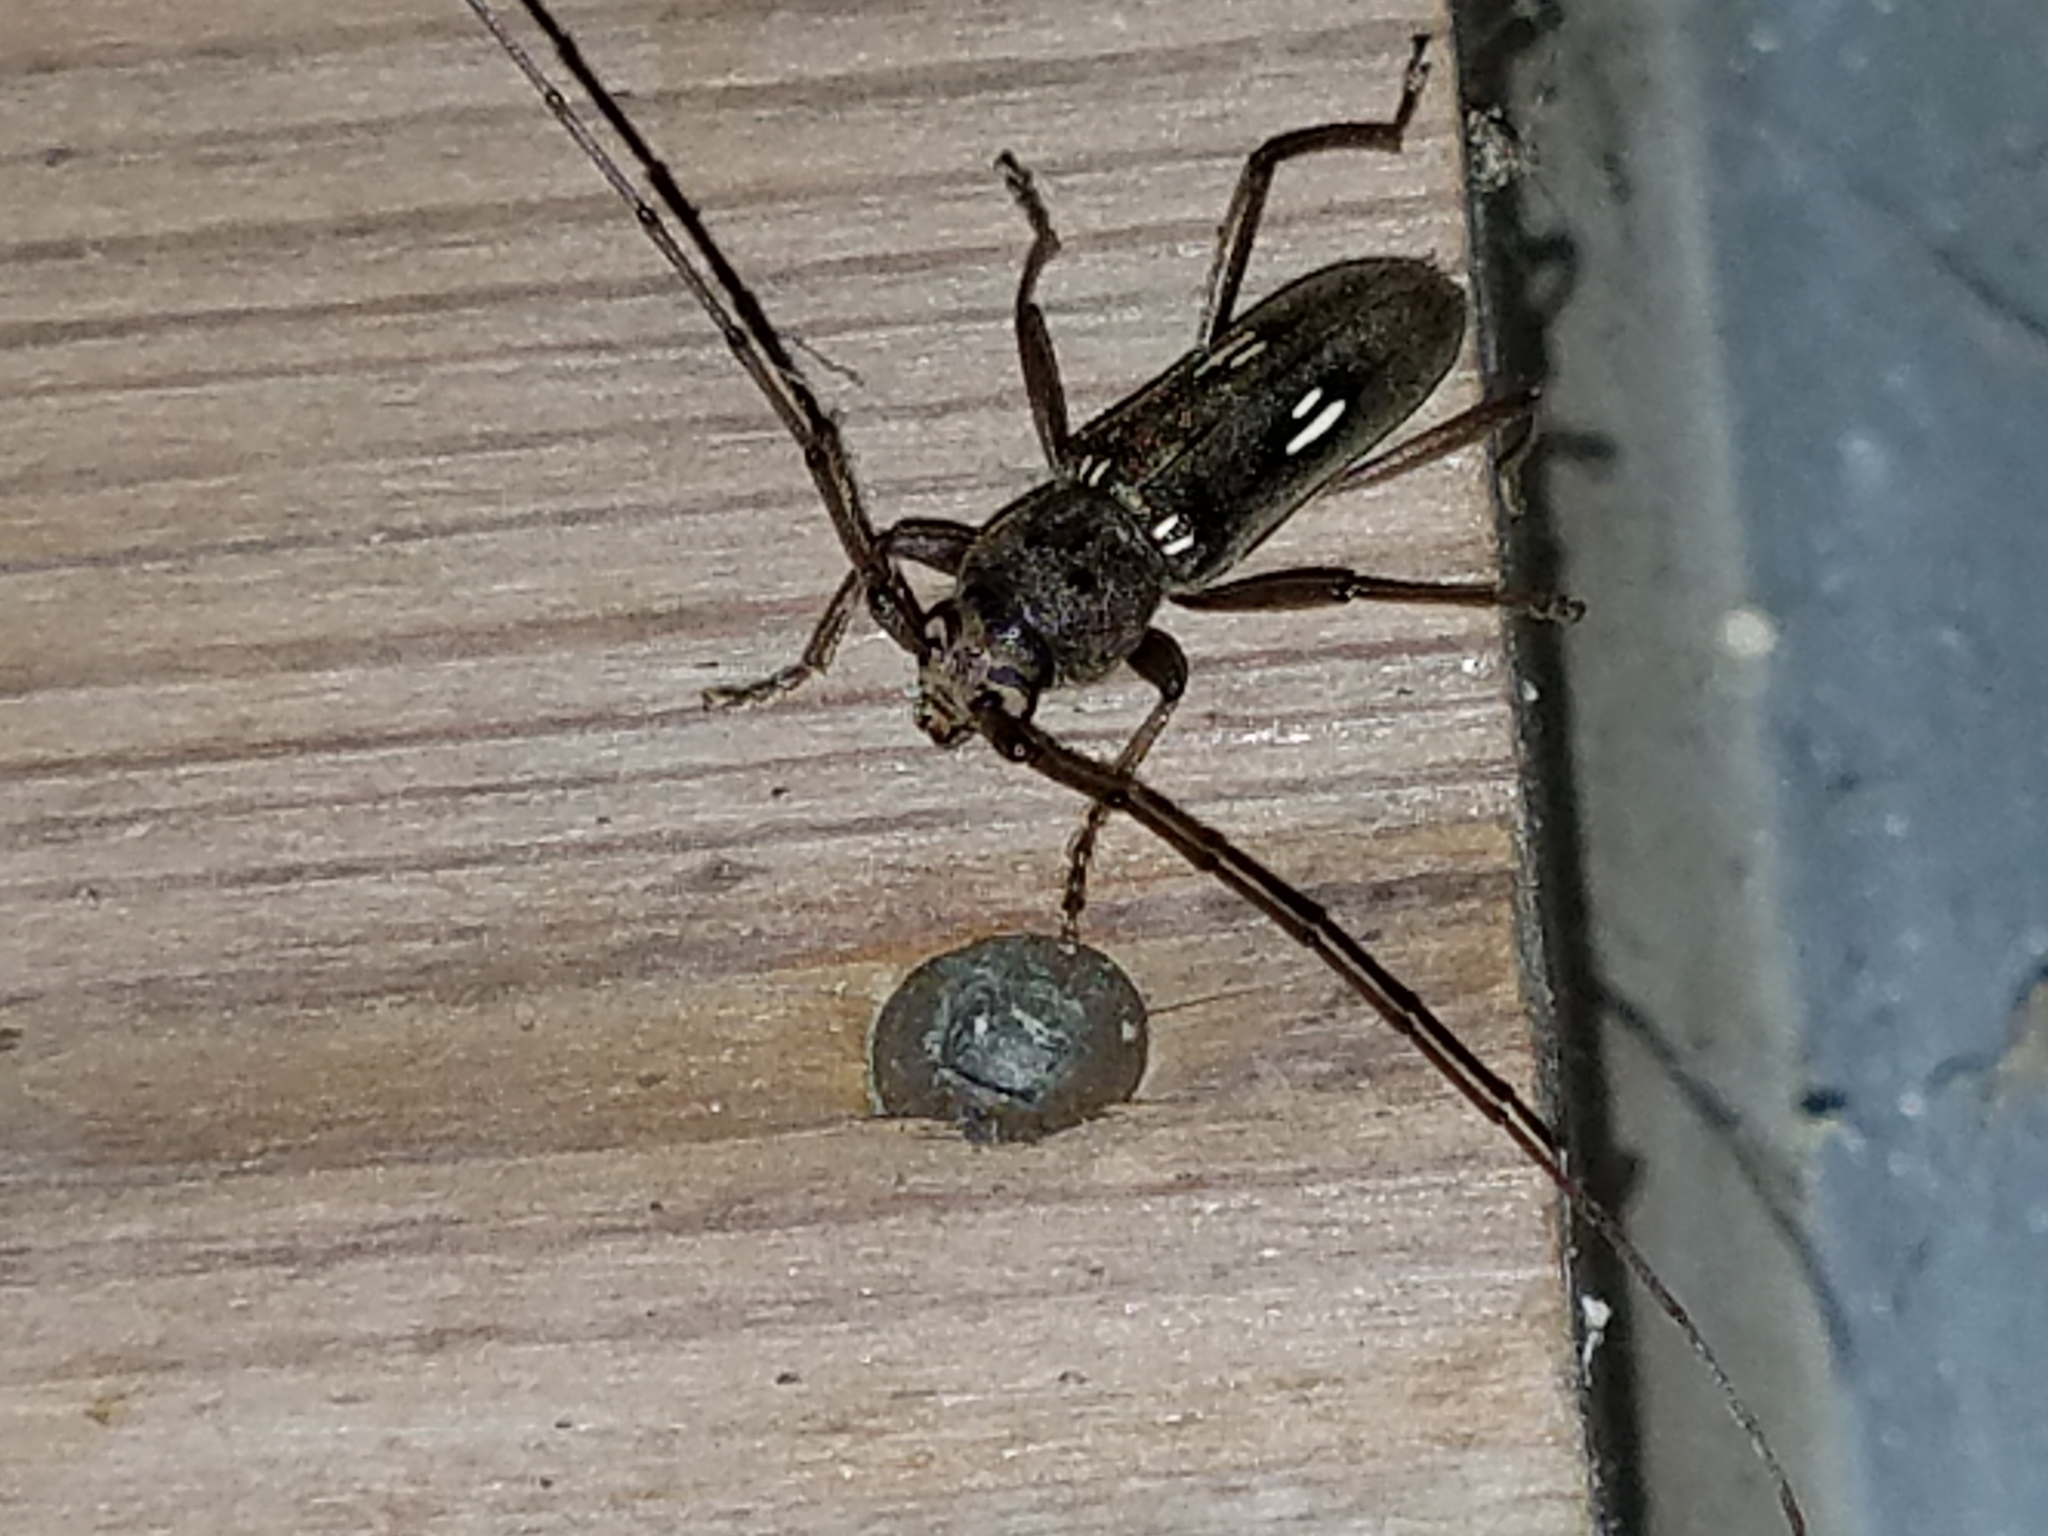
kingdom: Animalia
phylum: Arthropoda
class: Insecta
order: Coleoptera
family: Cerambycidae
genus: Eburia
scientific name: Eburia ovicollis
